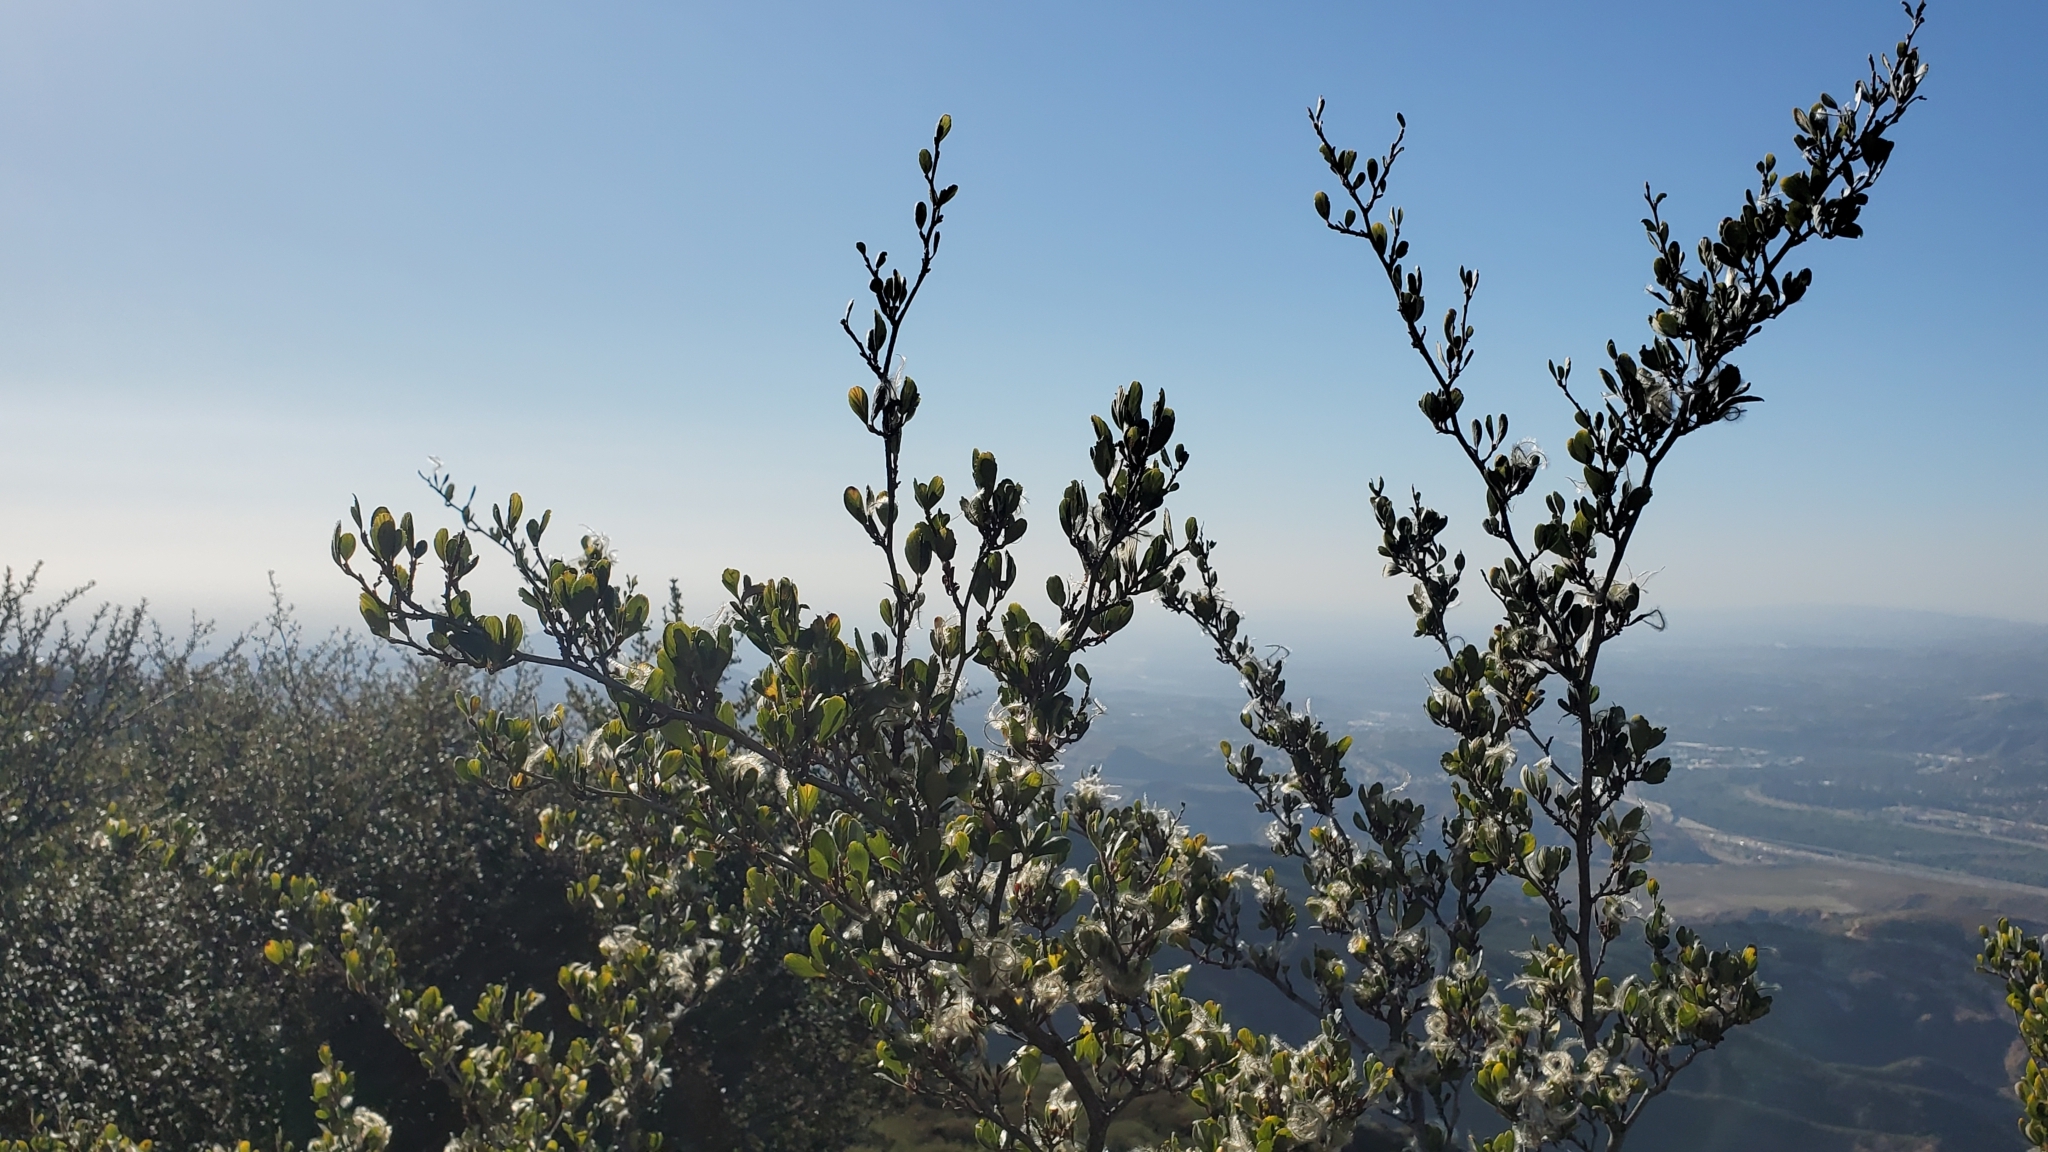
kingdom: Plantae
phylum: Tracheophyta
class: Magnoliopsida
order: Rosales
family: Rosaceae
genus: Cercocarpus
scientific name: Cercocarpus betuloides
